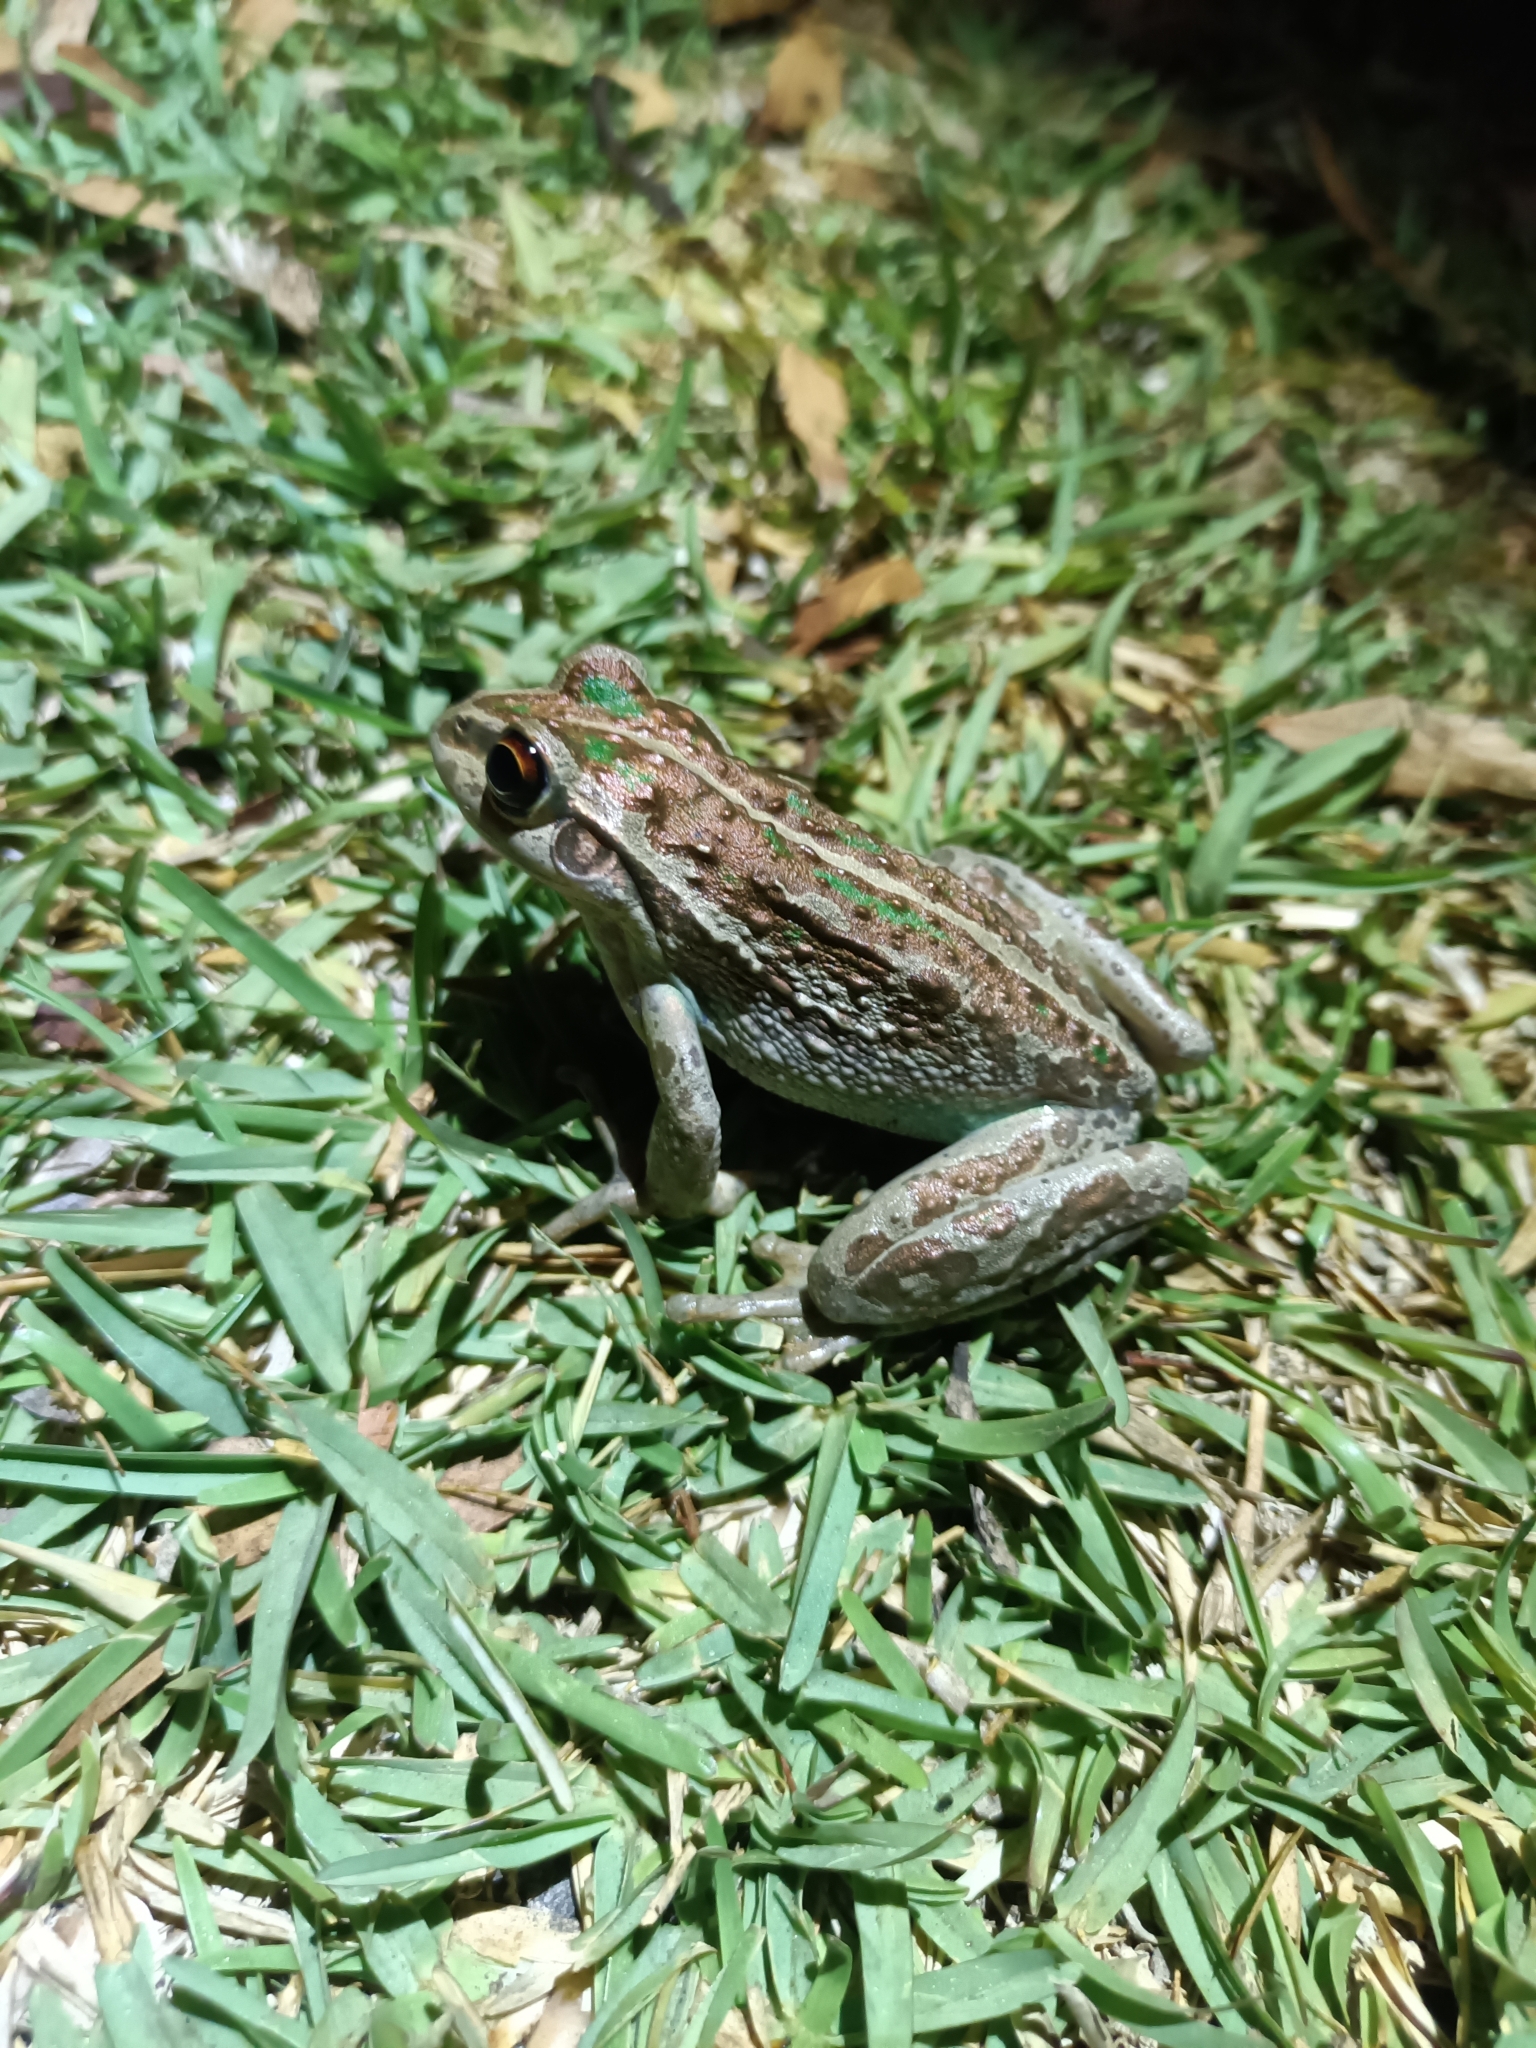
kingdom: Animalia
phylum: Chordata
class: Amphibia
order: Anura
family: Pelodryadidae
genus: Ranoidea
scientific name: Ranoidea moorei
